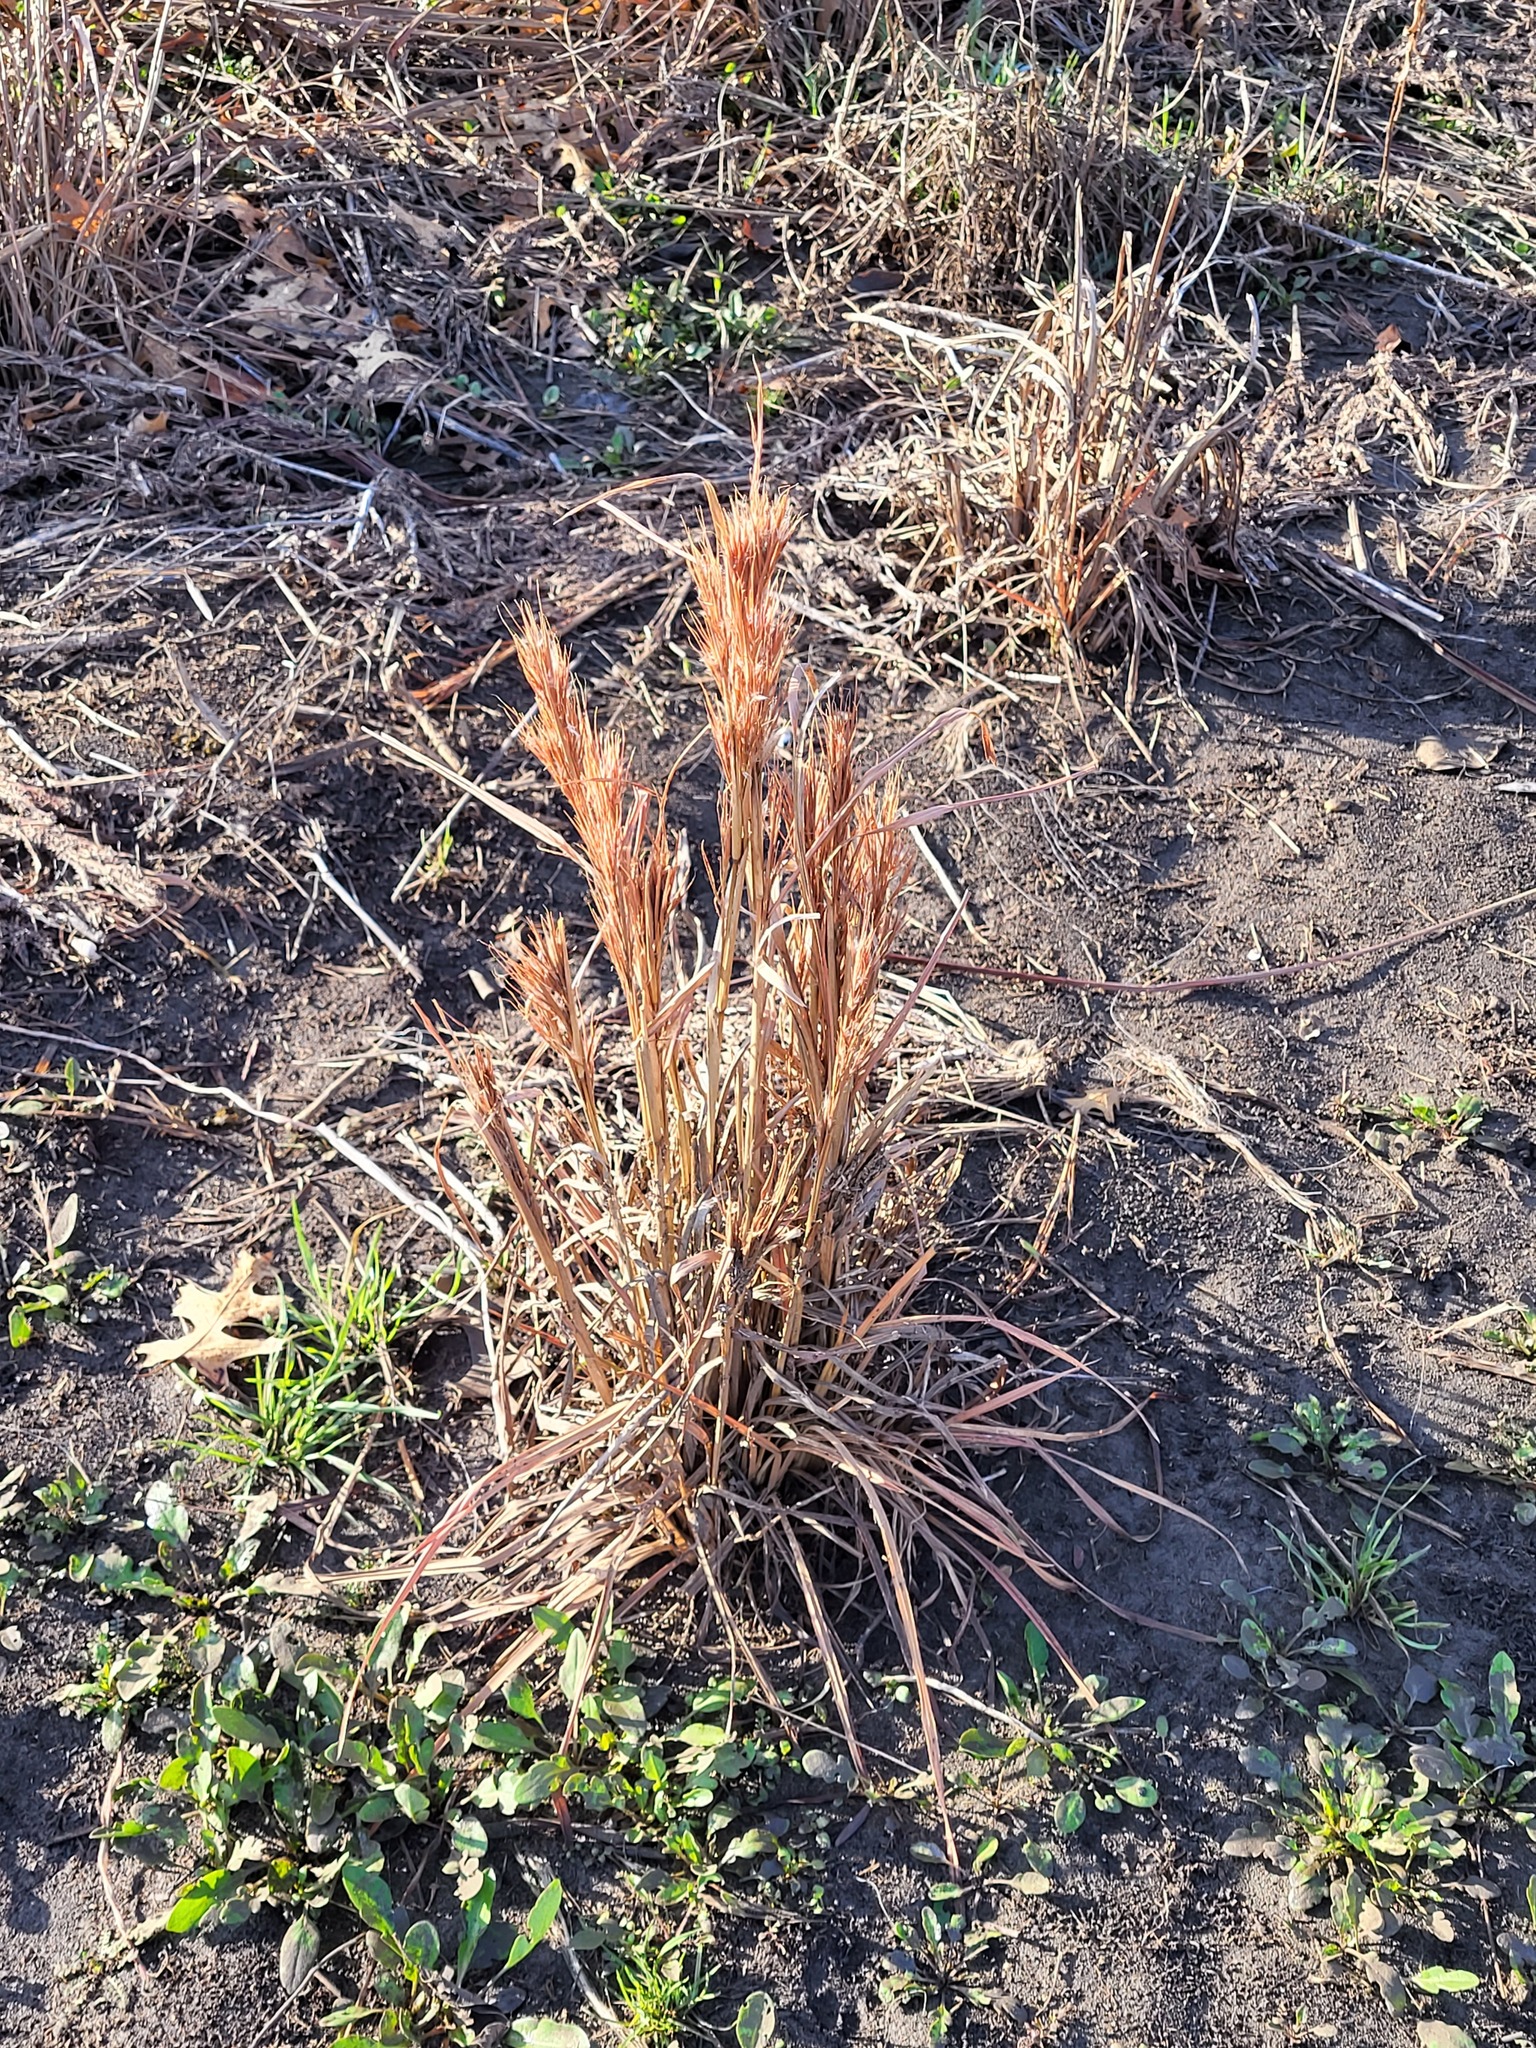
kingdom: Plantae
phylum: Tracheophyta
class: Liliopsida
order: Poales
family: Poaceae
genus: Panicum
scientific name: Panicum virgatum
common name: Switchgrass
